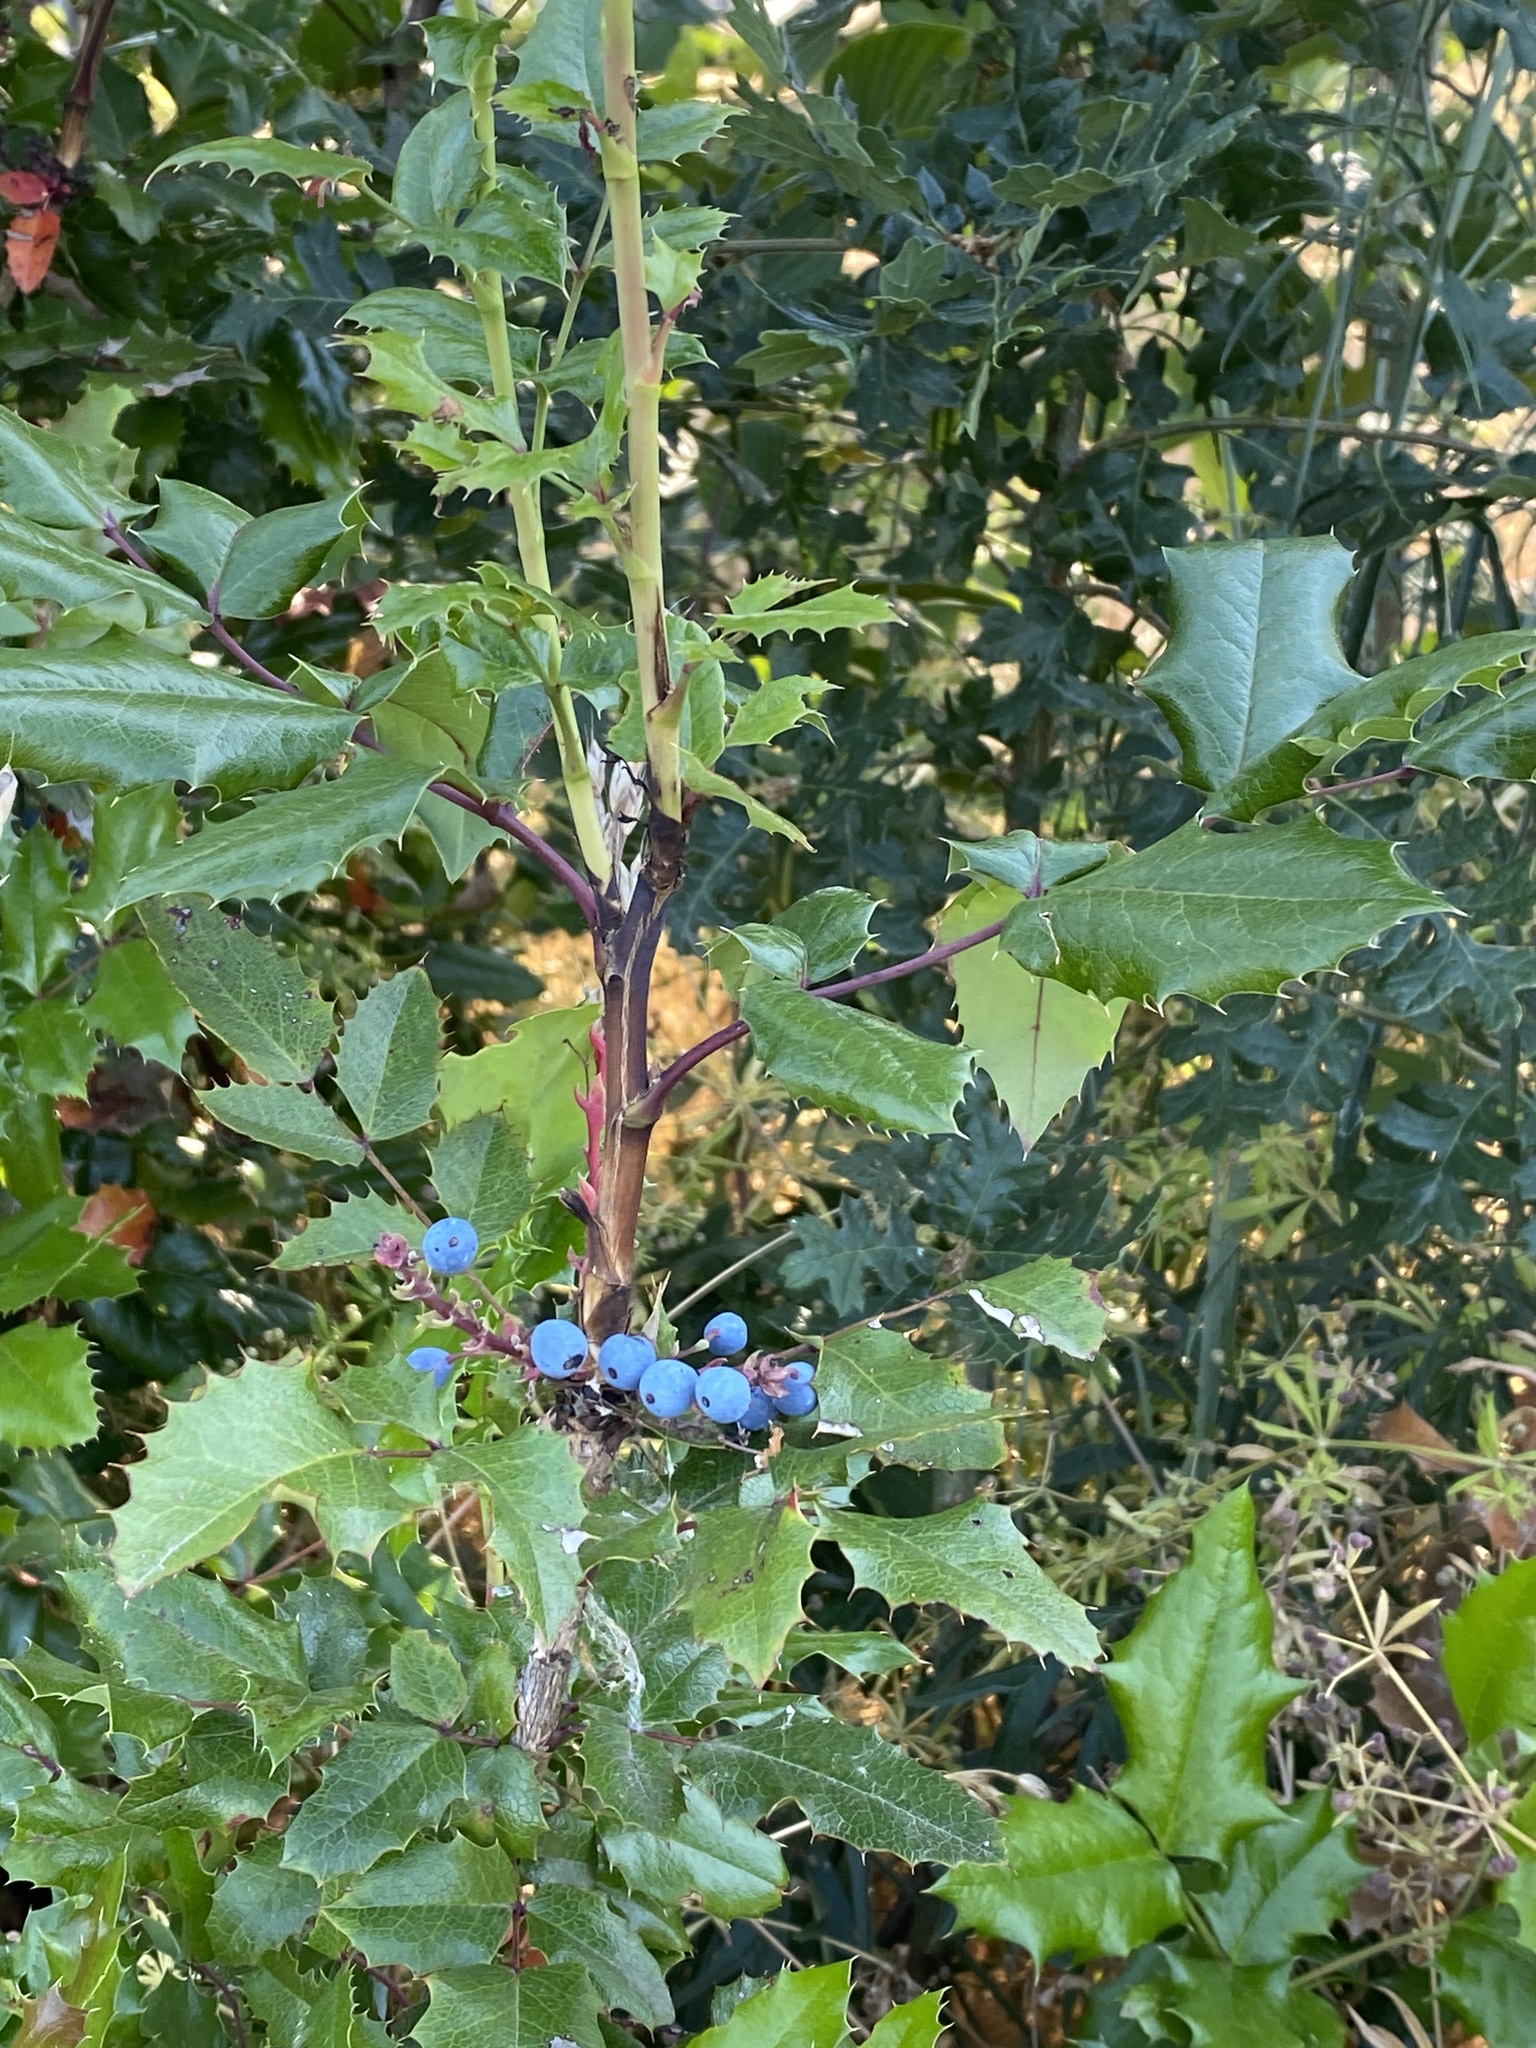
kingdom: Plantae
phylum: Tracheophyta
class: Magnoliopsida
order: Ranunculales
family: Berberidaceae
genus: Mahonia
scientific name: Mahonia aquifolium
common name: Oregon-grape
